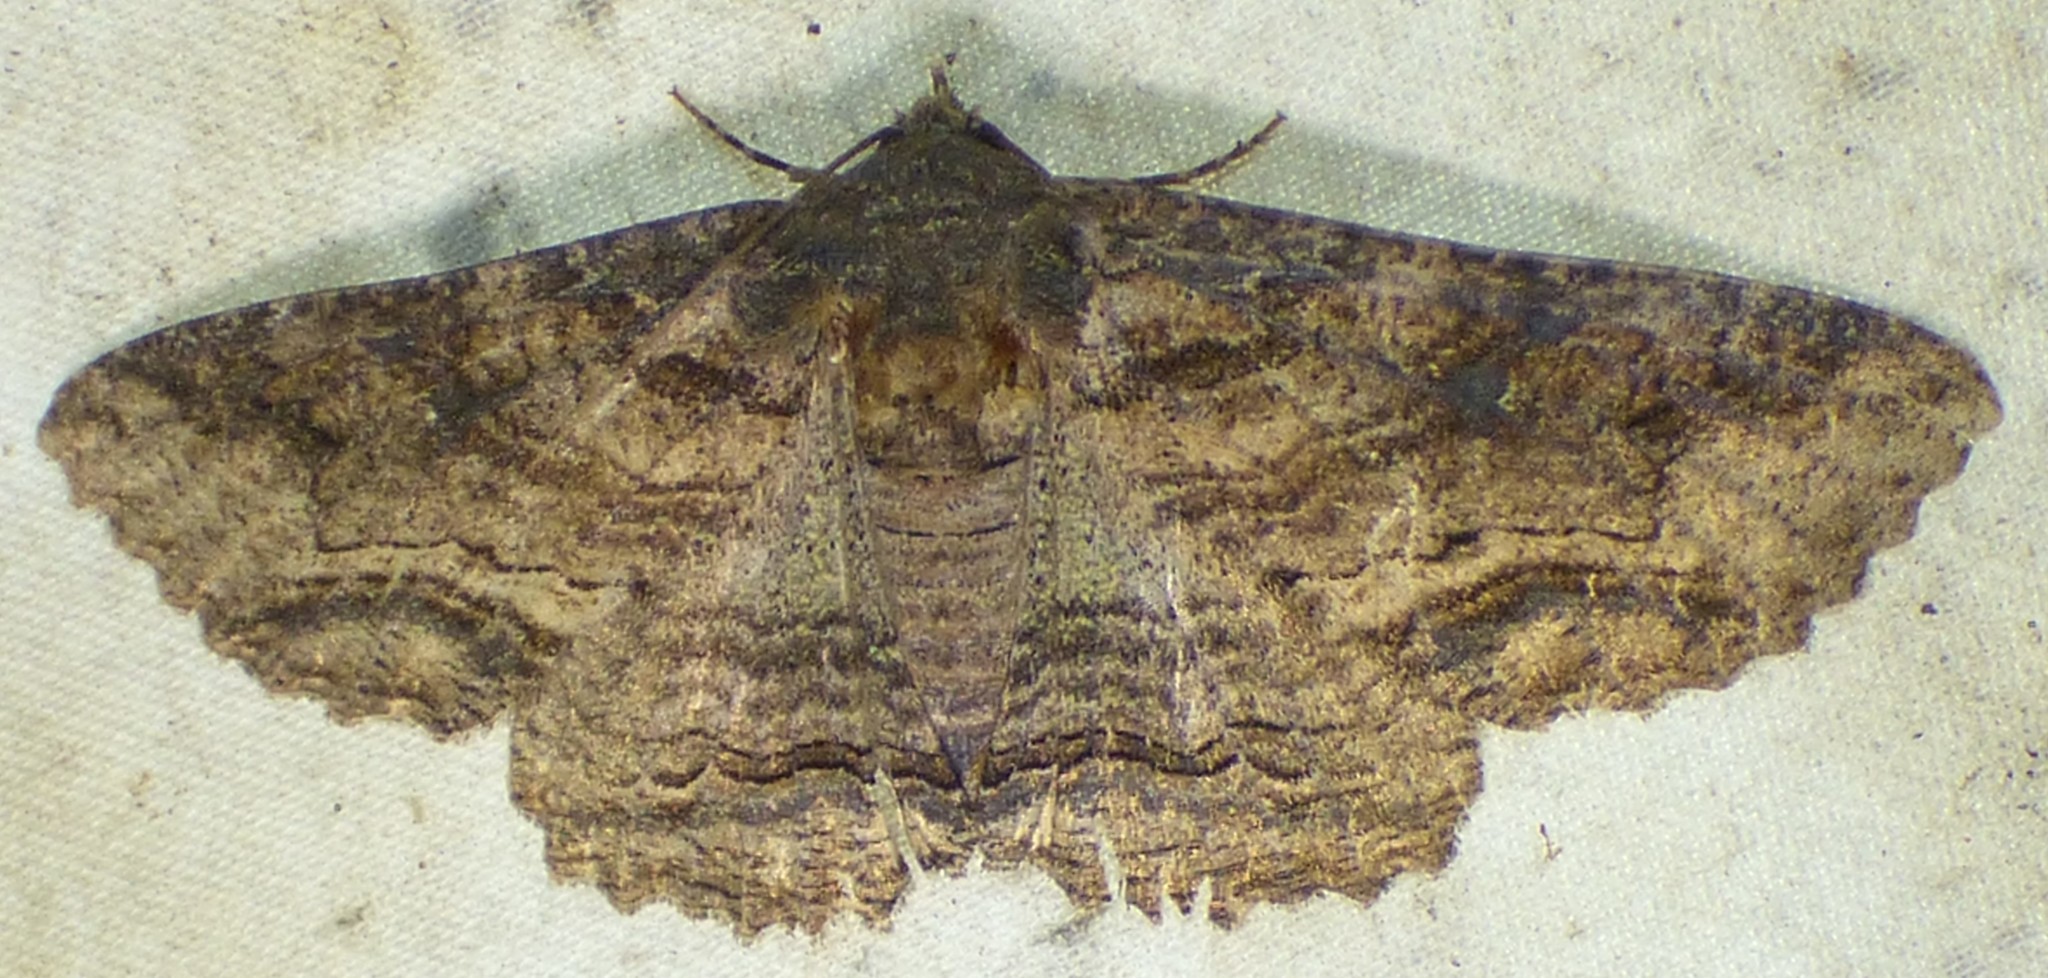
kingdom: Animalia
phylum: Arthropoda
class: Insecta
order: Lepidoptera
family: Erebidae
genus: Zale
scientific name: Zale lunata
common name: Lunate zale moth
